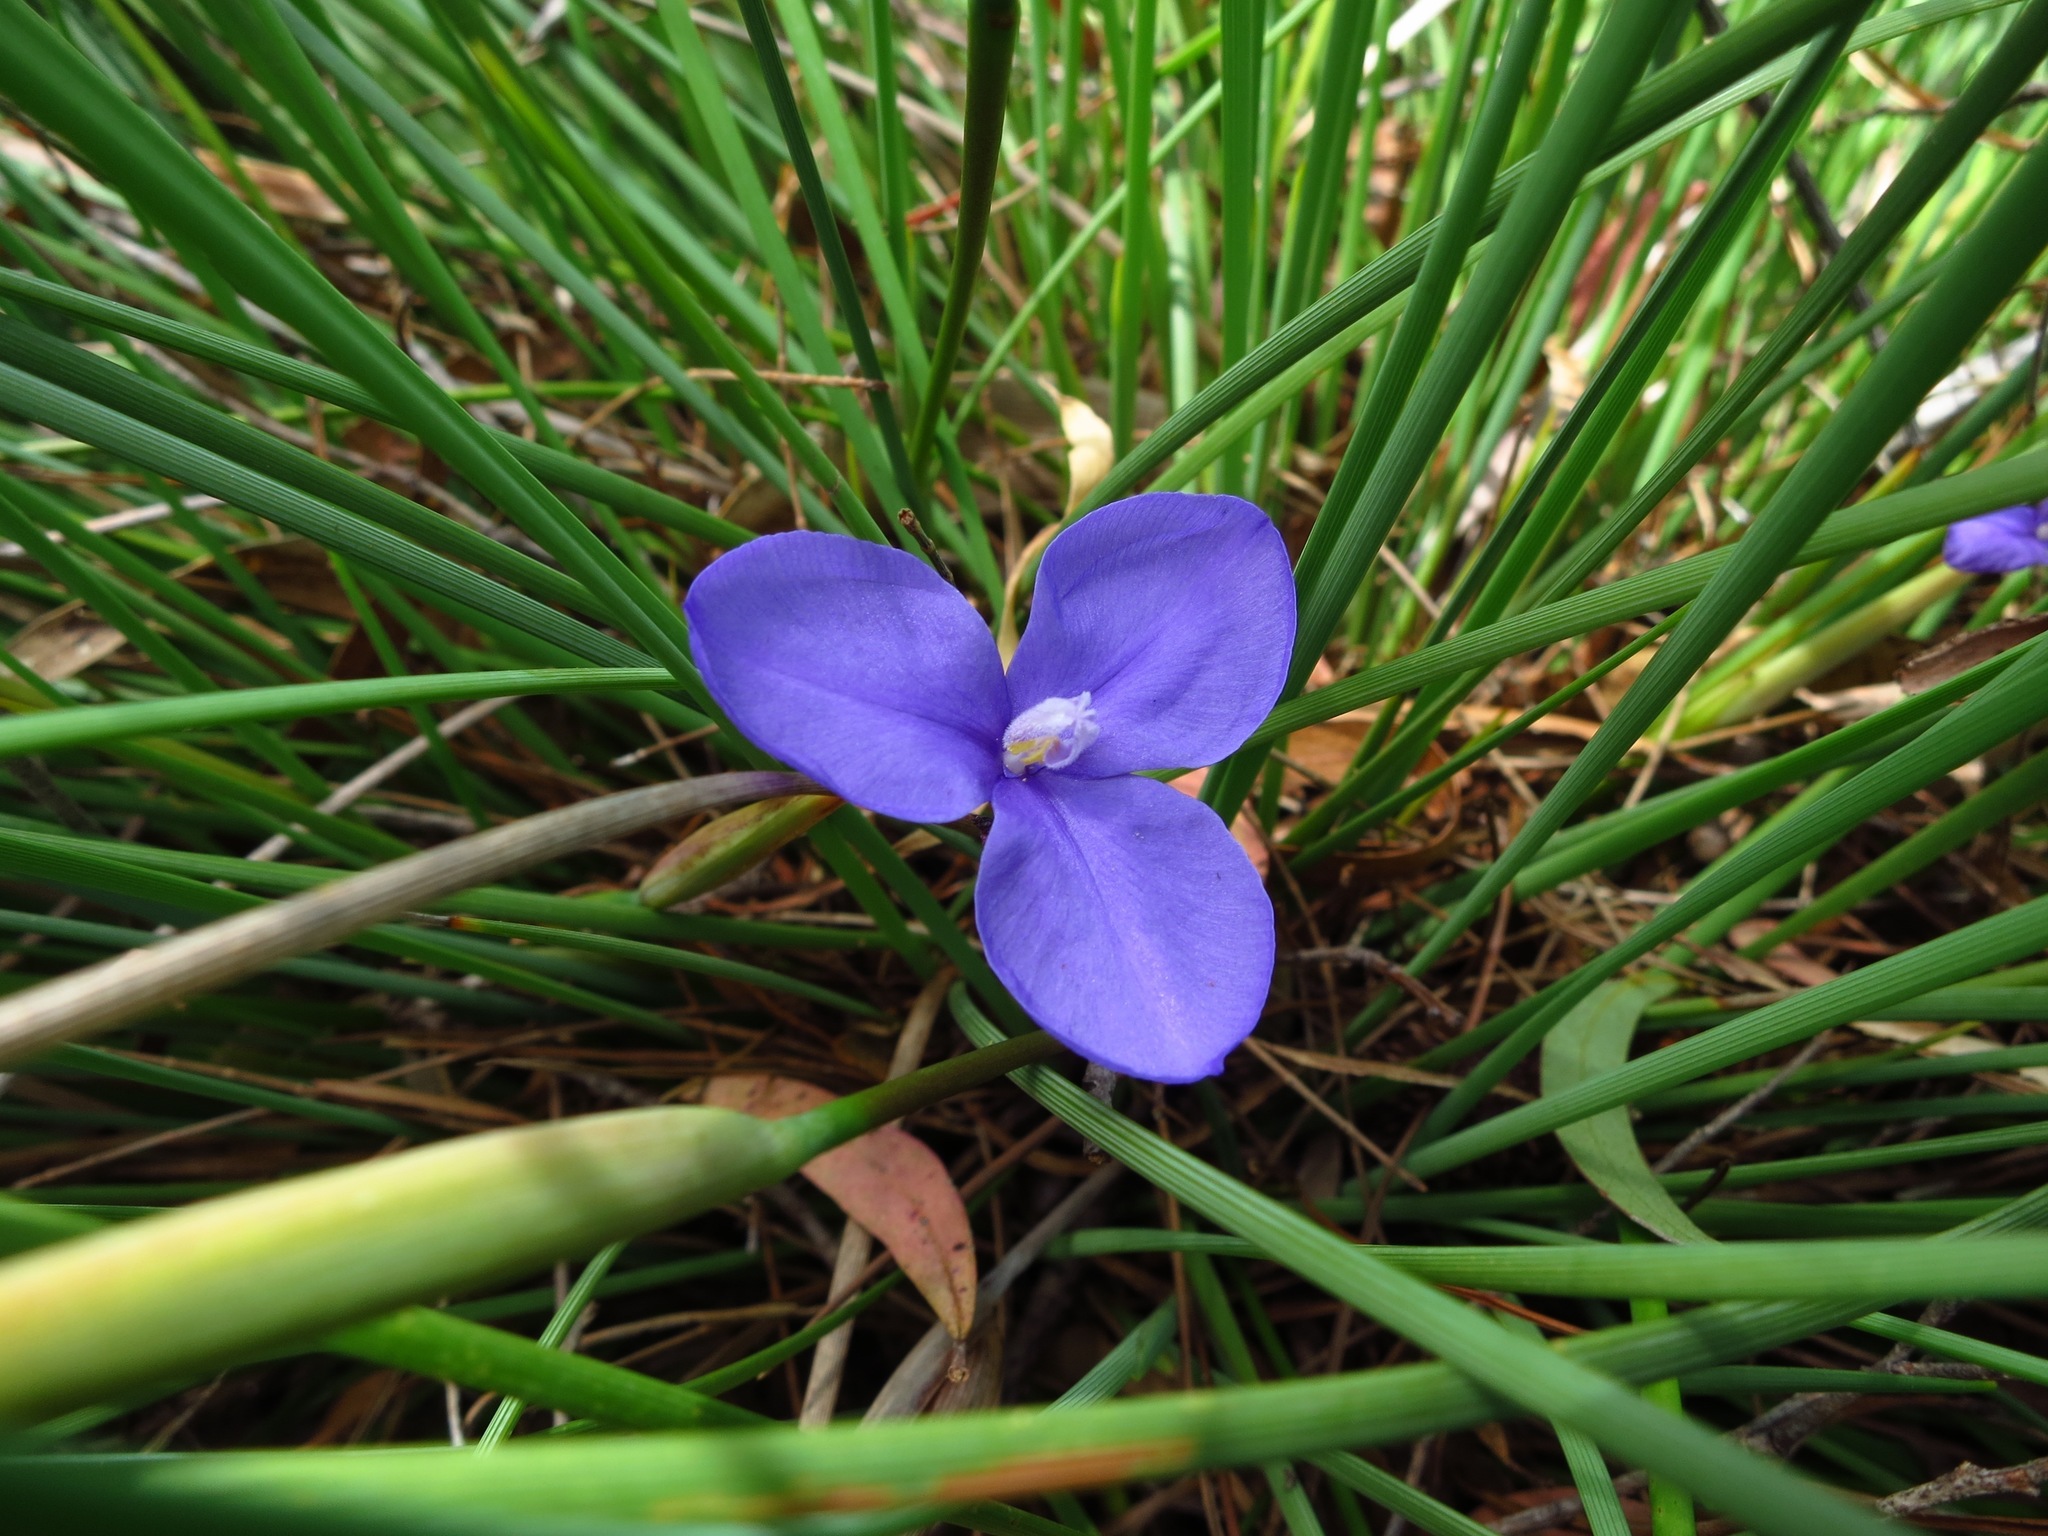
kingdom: Plantae
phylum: Tracheophyta
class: Liliopsida
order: Asparagales
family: Iridaceae
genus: Patersonia
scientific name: Patersonia fragilis
